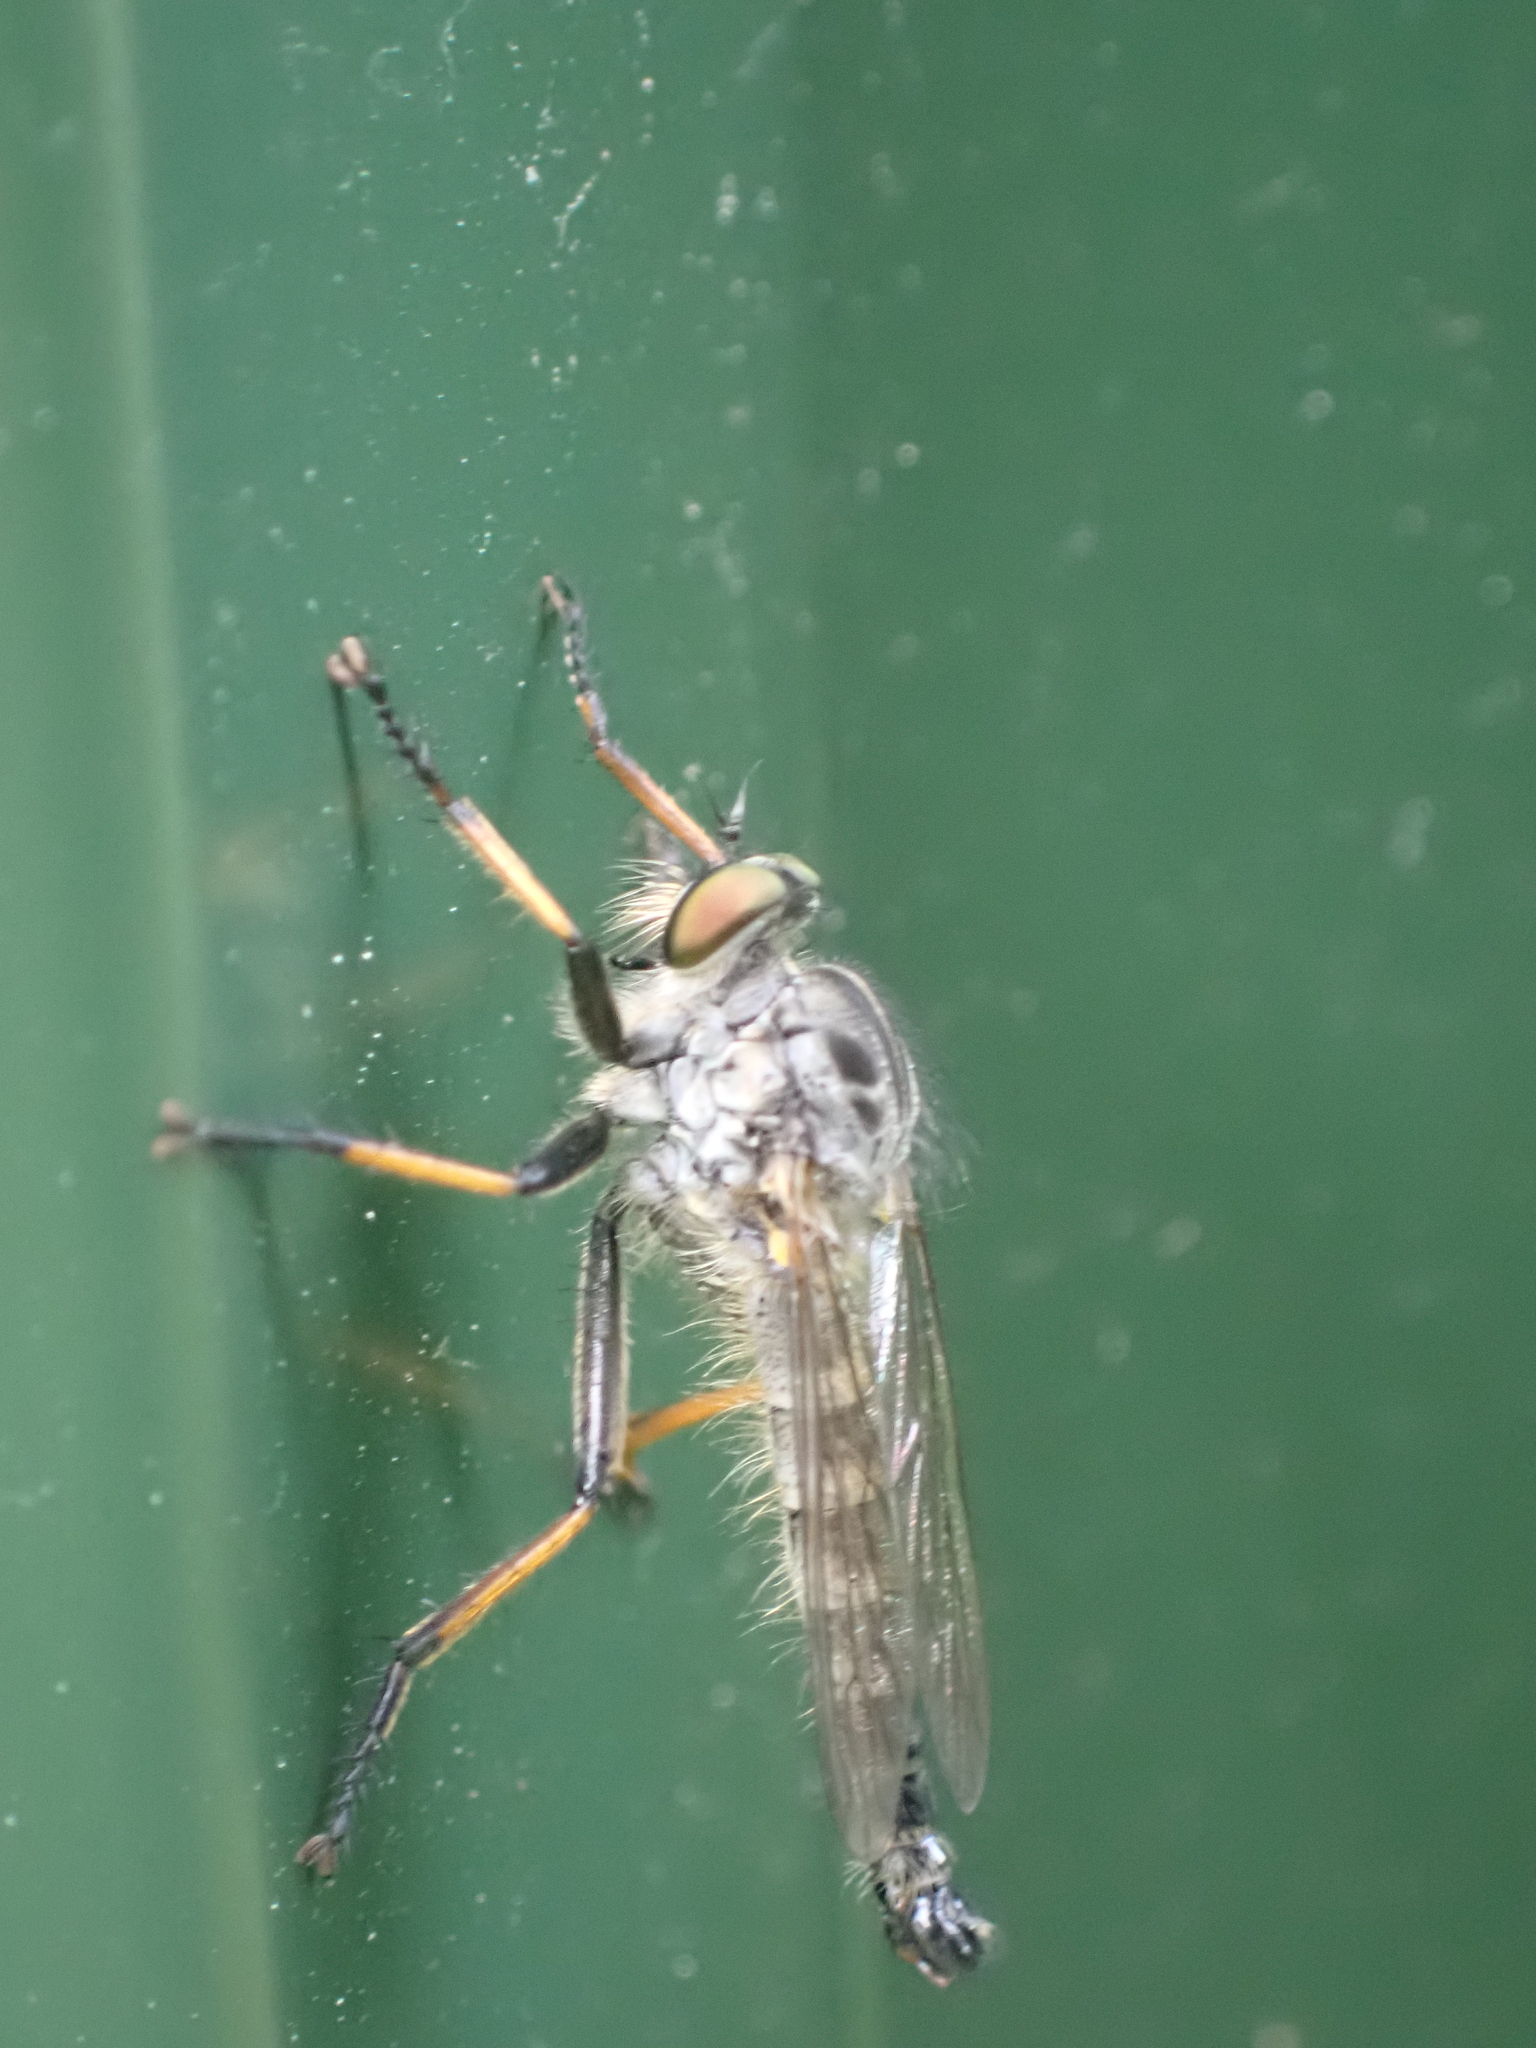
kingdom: Animalia
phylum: Arthropoda
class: Insecta
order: Diptera
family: Asilidae
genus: Neoitamus
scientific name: Neoitamus
